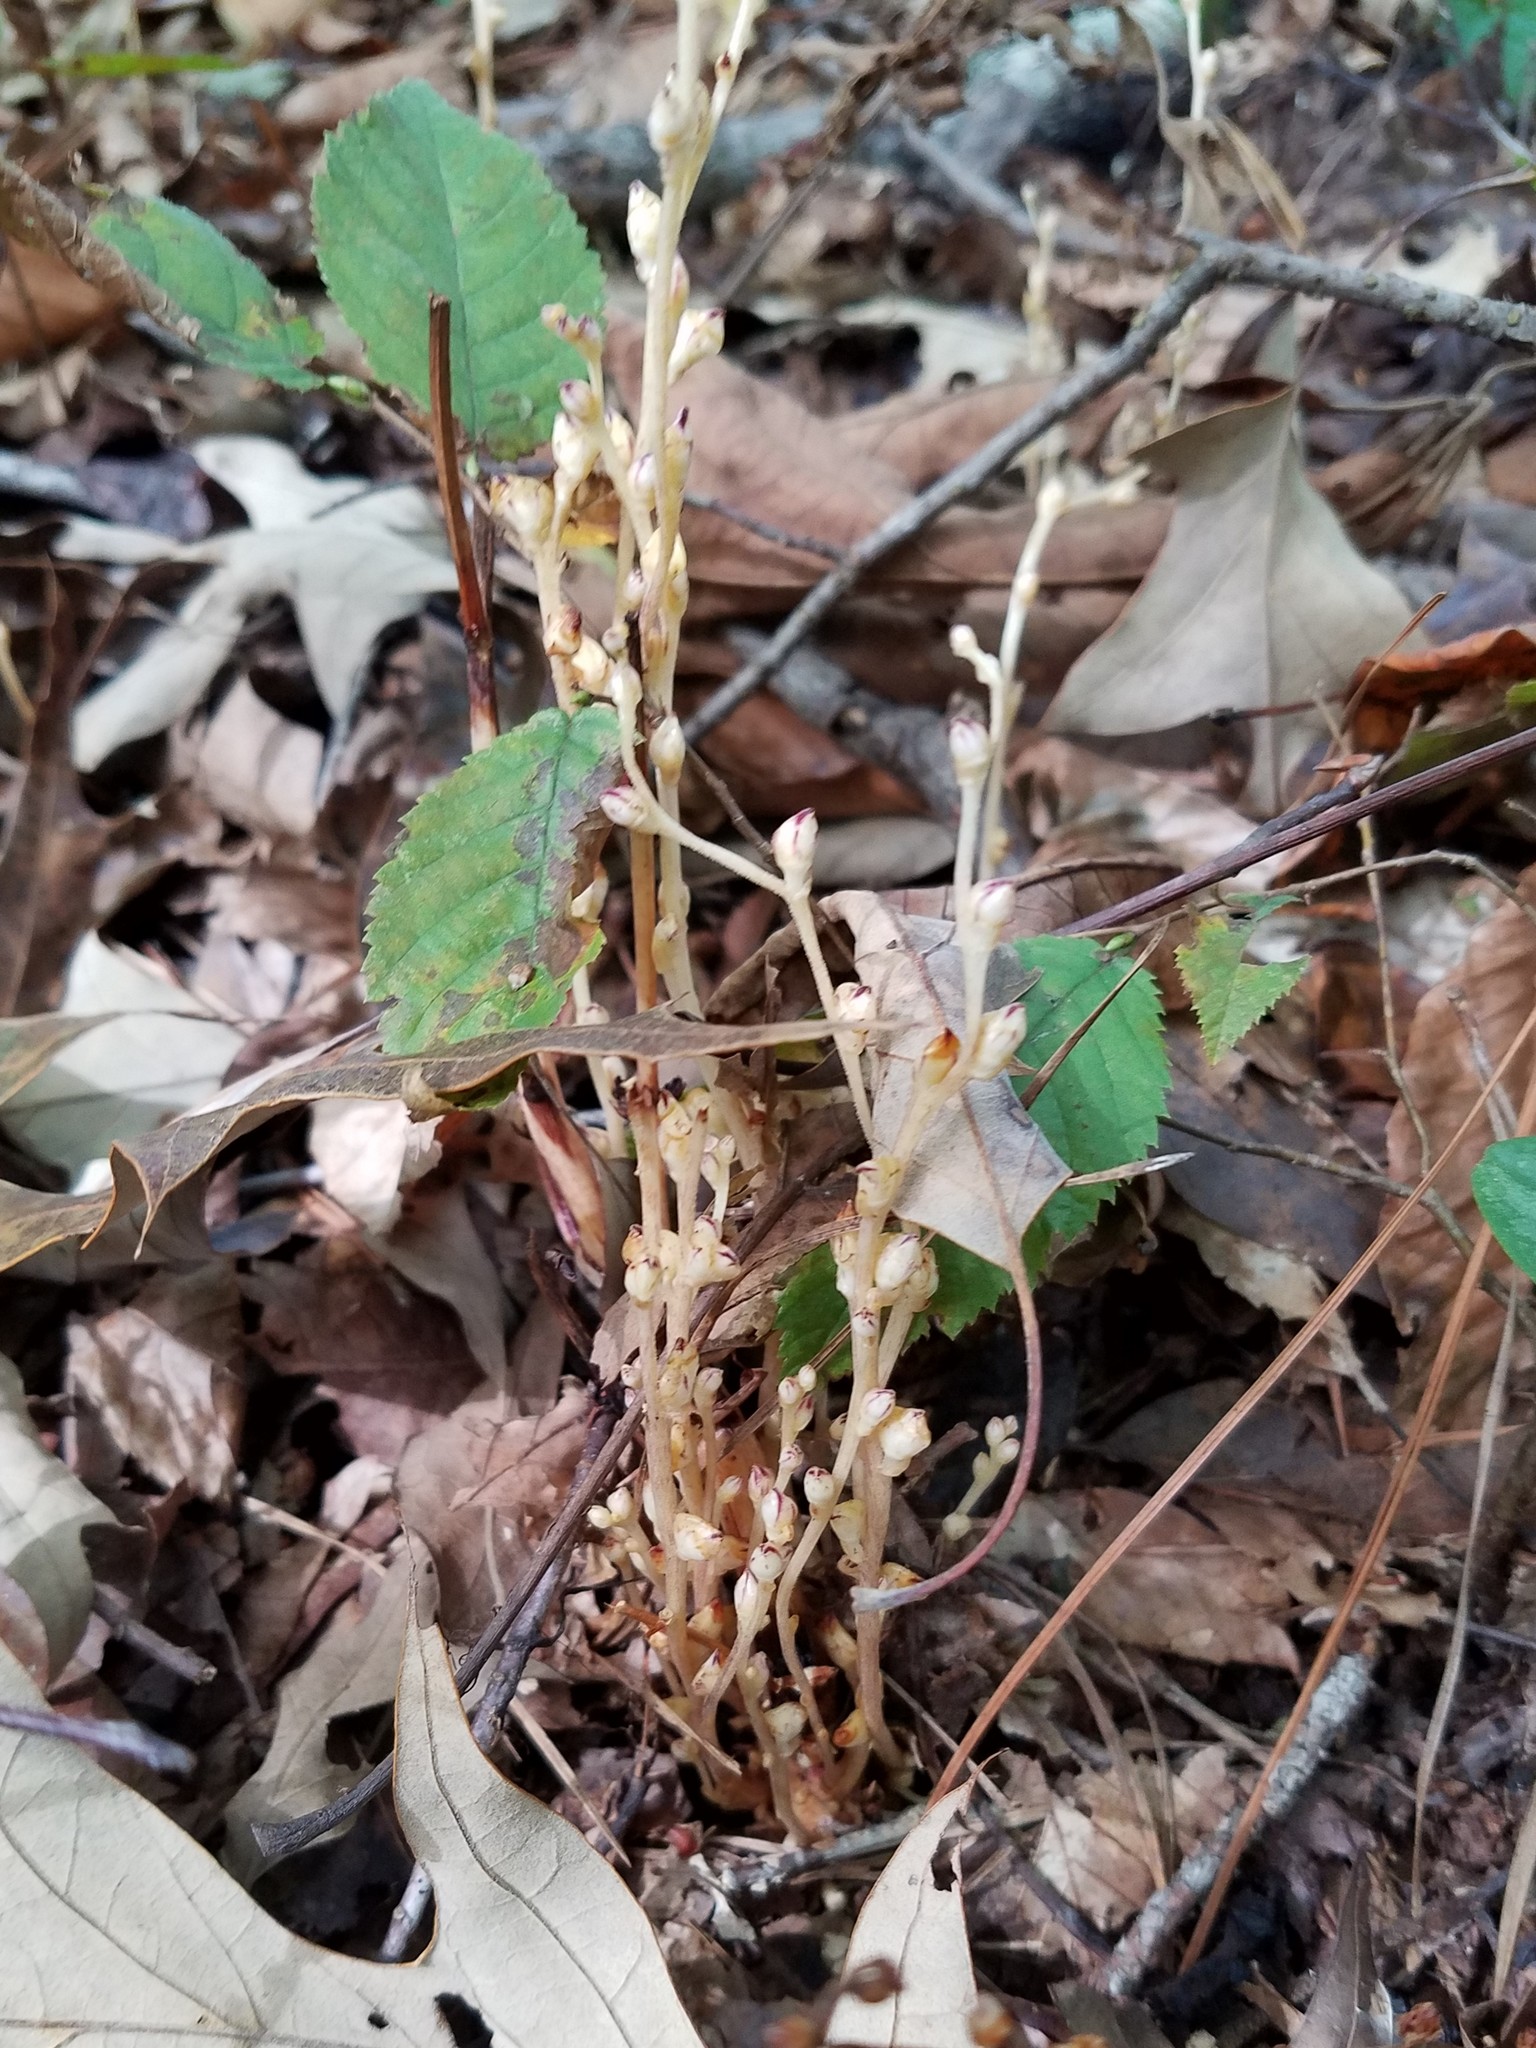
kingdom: Plantae
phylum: Tracheophyta
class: Magnoliopsida
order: Lamiales
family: Orobanchaceae
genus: Epifagus
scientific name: Epifagus virginiana
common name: Beechdrops
